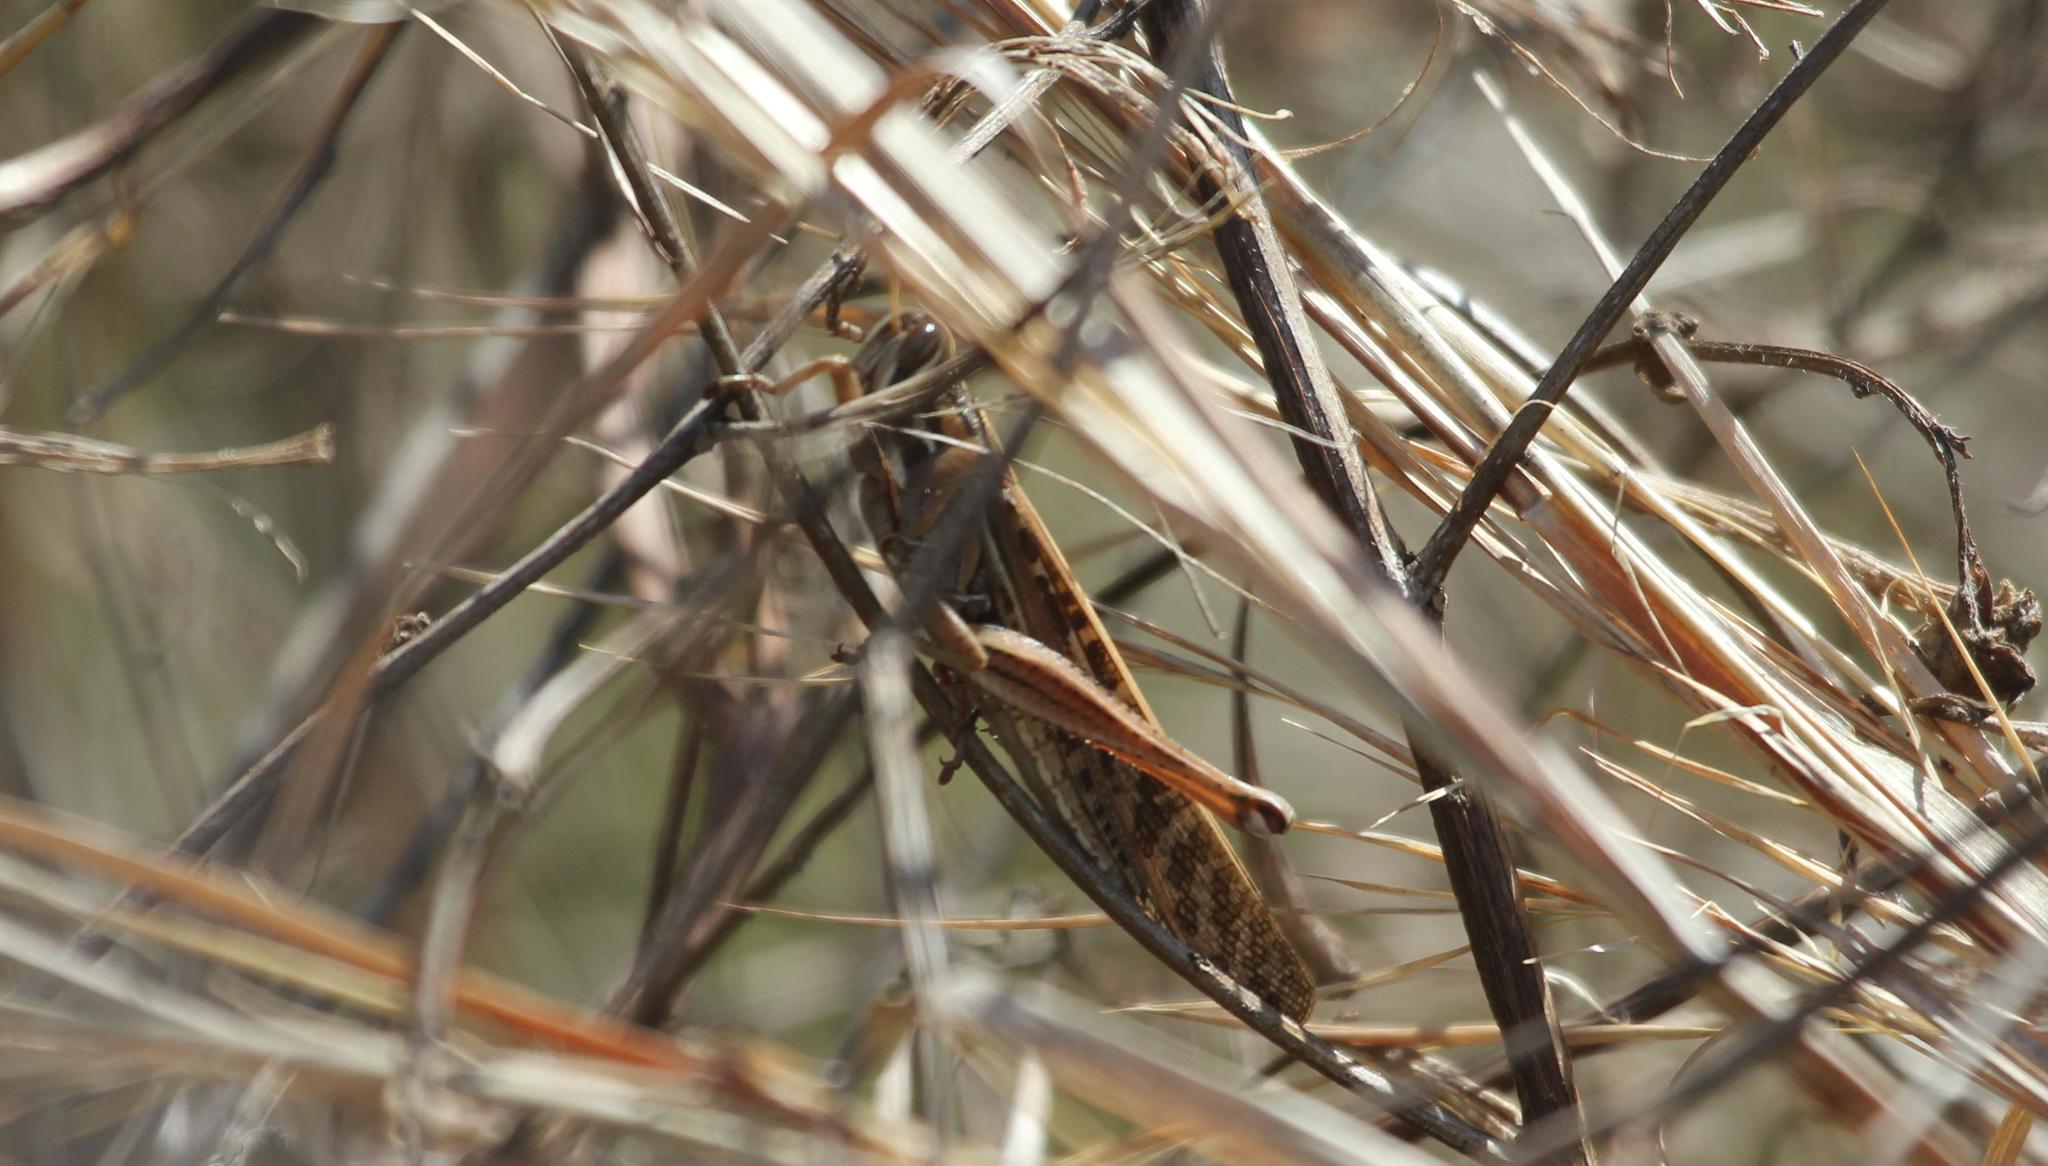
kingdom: Animalia
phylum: Arthropoda
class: Insecta
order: Orthoptera
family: Acrididae
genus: Schistocerca
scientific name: Schistocerca americana
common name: American bird locust
